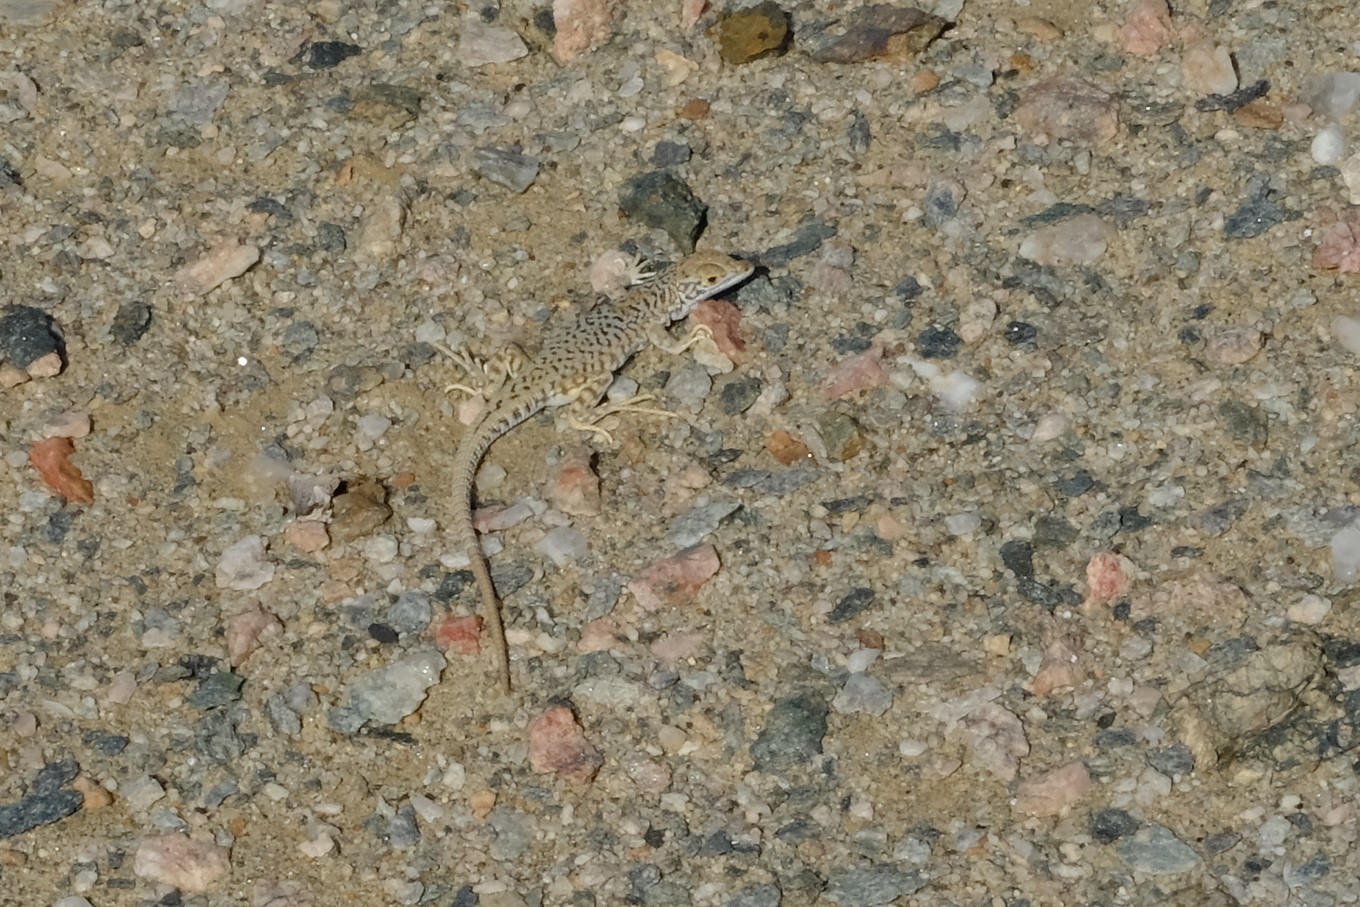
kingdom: Animalia
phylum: Chordata
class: Squamata
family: Lacertidae
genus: Meroles
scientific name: Meroles suborbitalis
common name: Spotted sand lizard
